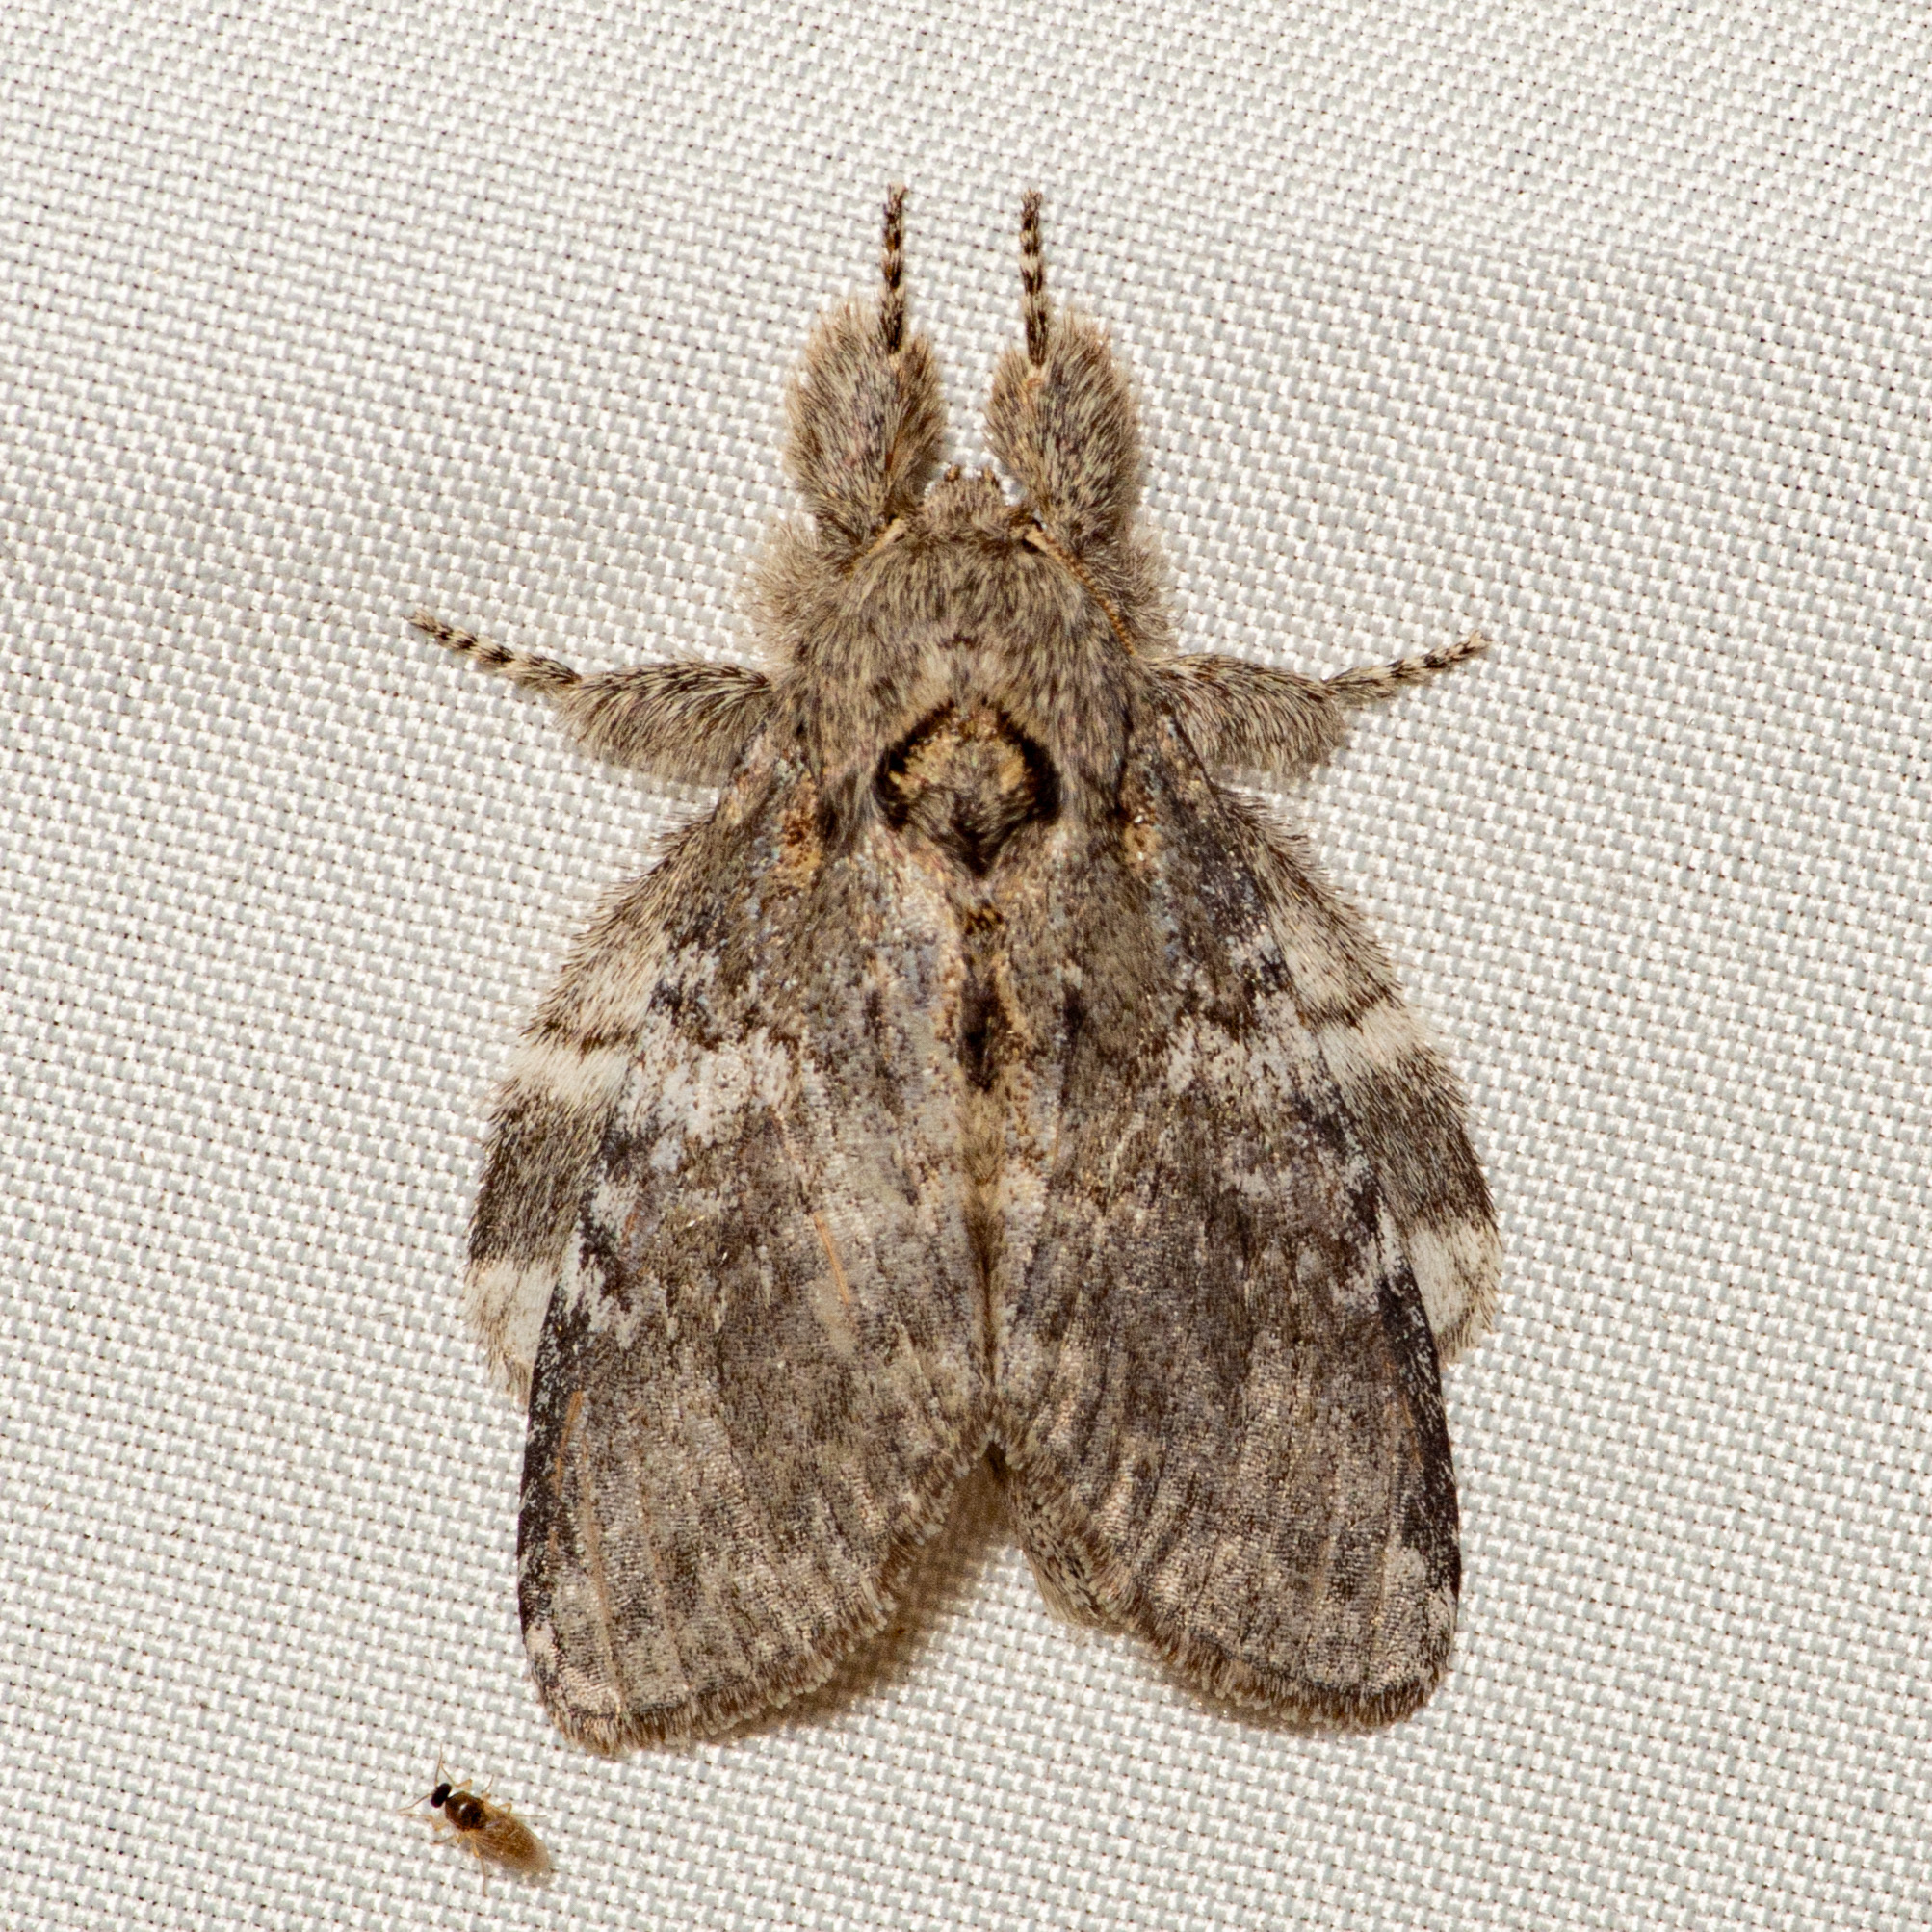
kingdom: Animalia
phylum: Arthropoda
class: Insecta
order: Lepidoptera
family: Notodontidae
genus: Peridea
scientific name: Peridea angulosa
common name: Angulose prominent
